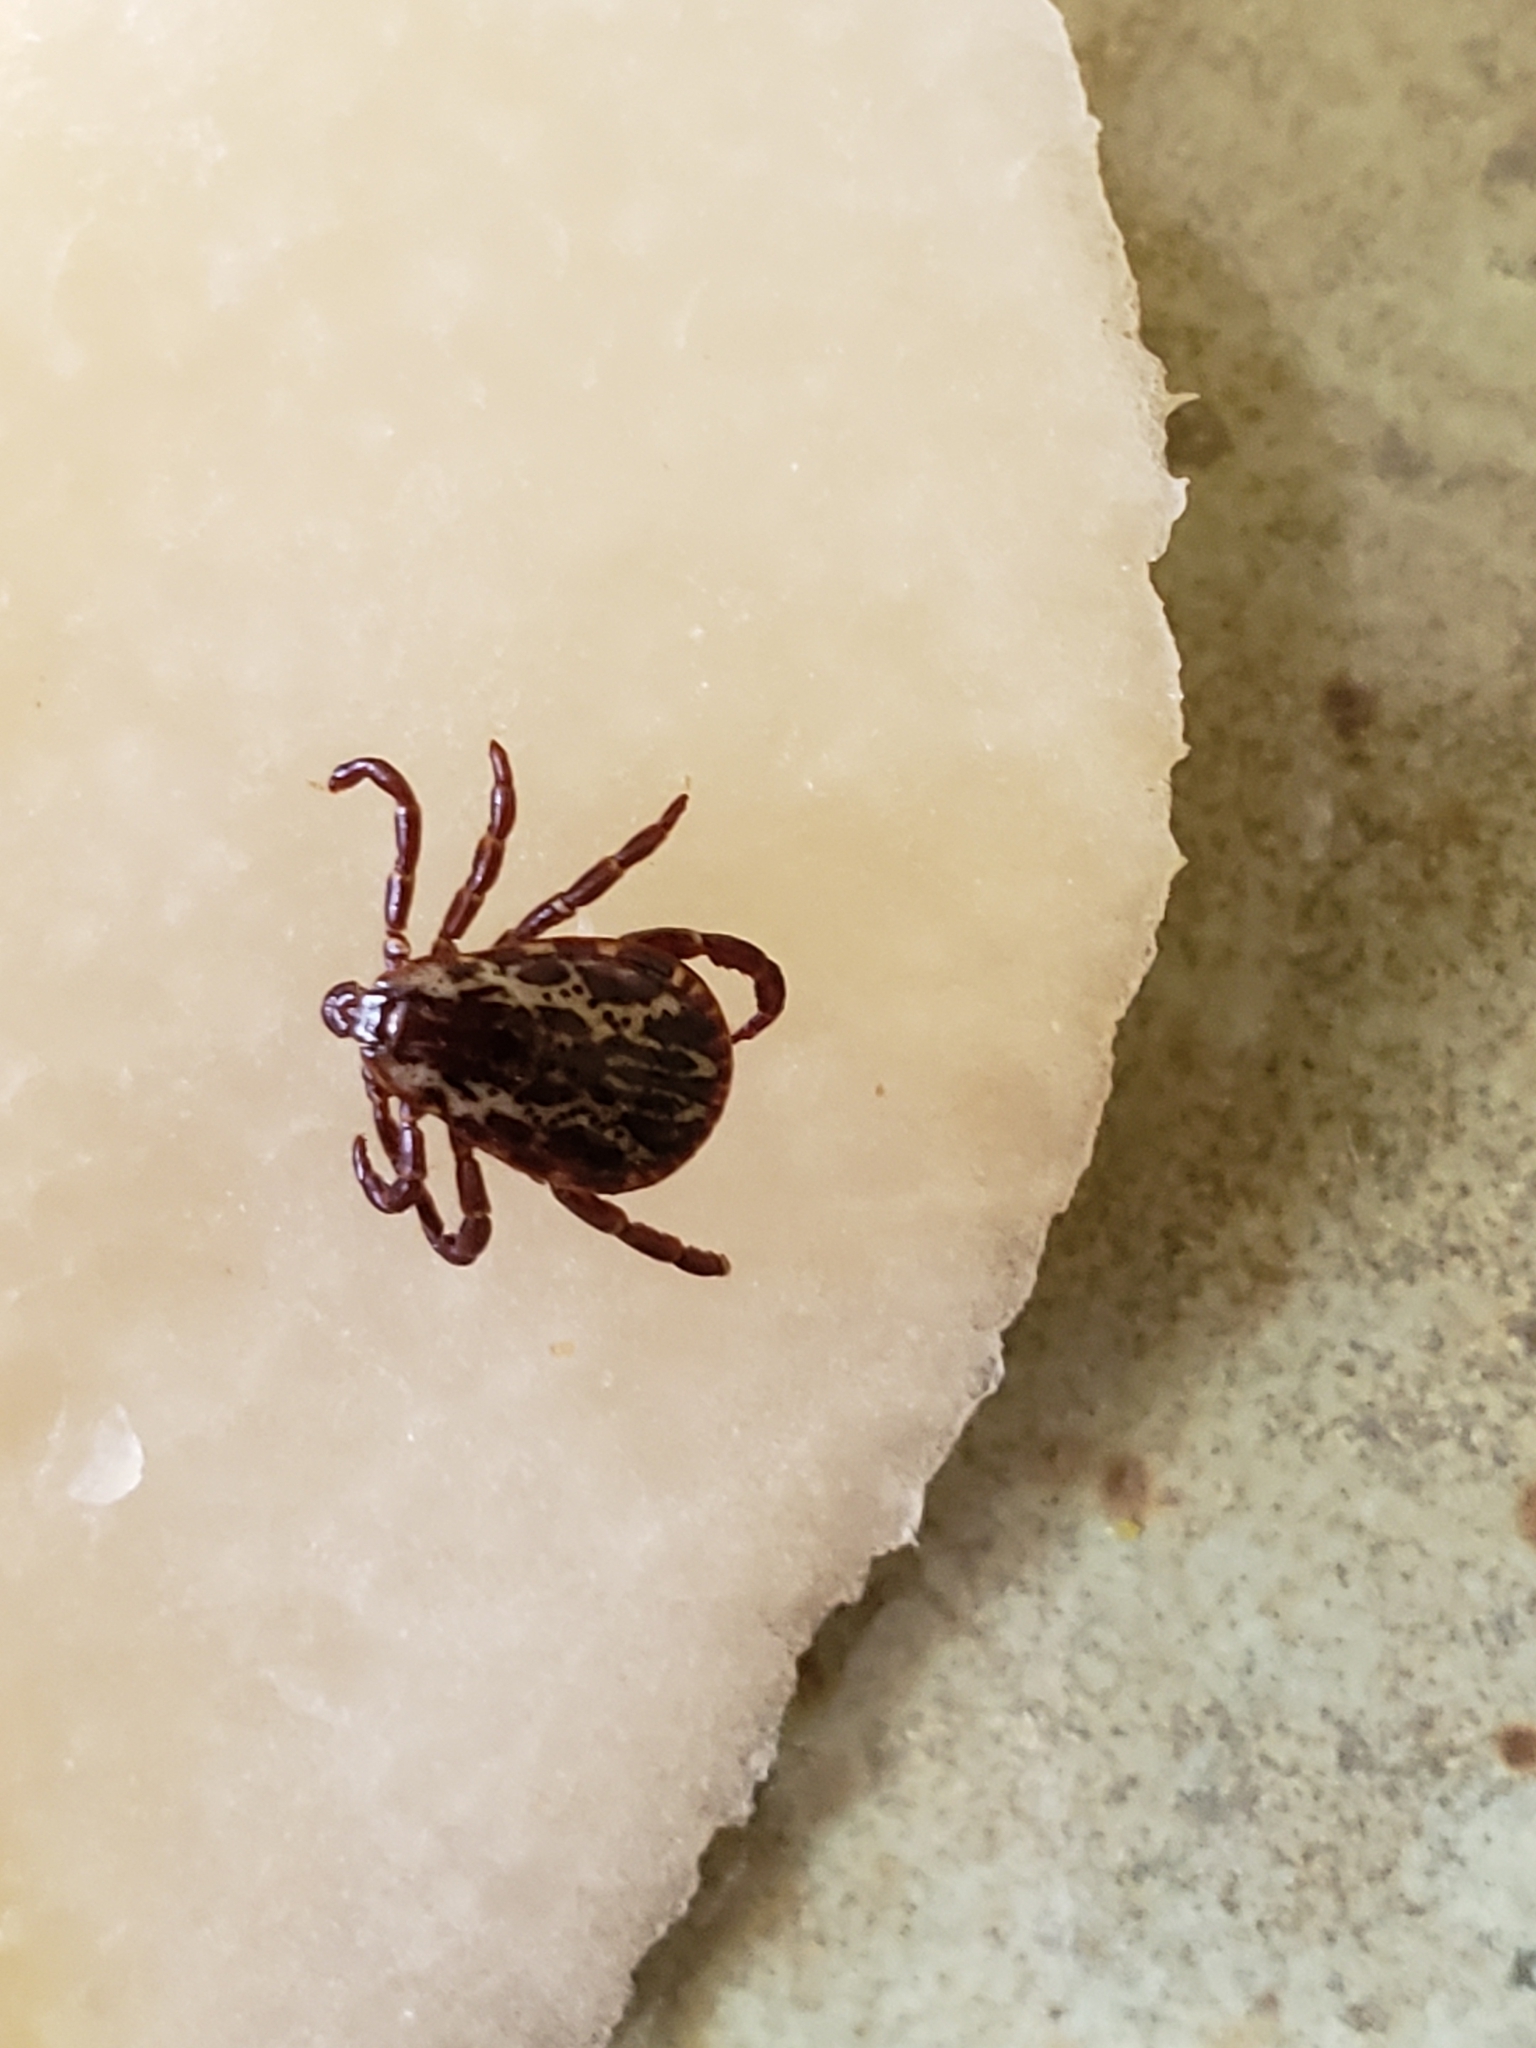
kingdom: Animalia
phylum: Arthropoda
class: Arachnida
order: Ixodida
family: Ixodidae
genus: Dermacentor
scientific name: Dermacentor variabilis
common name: American dog tick
